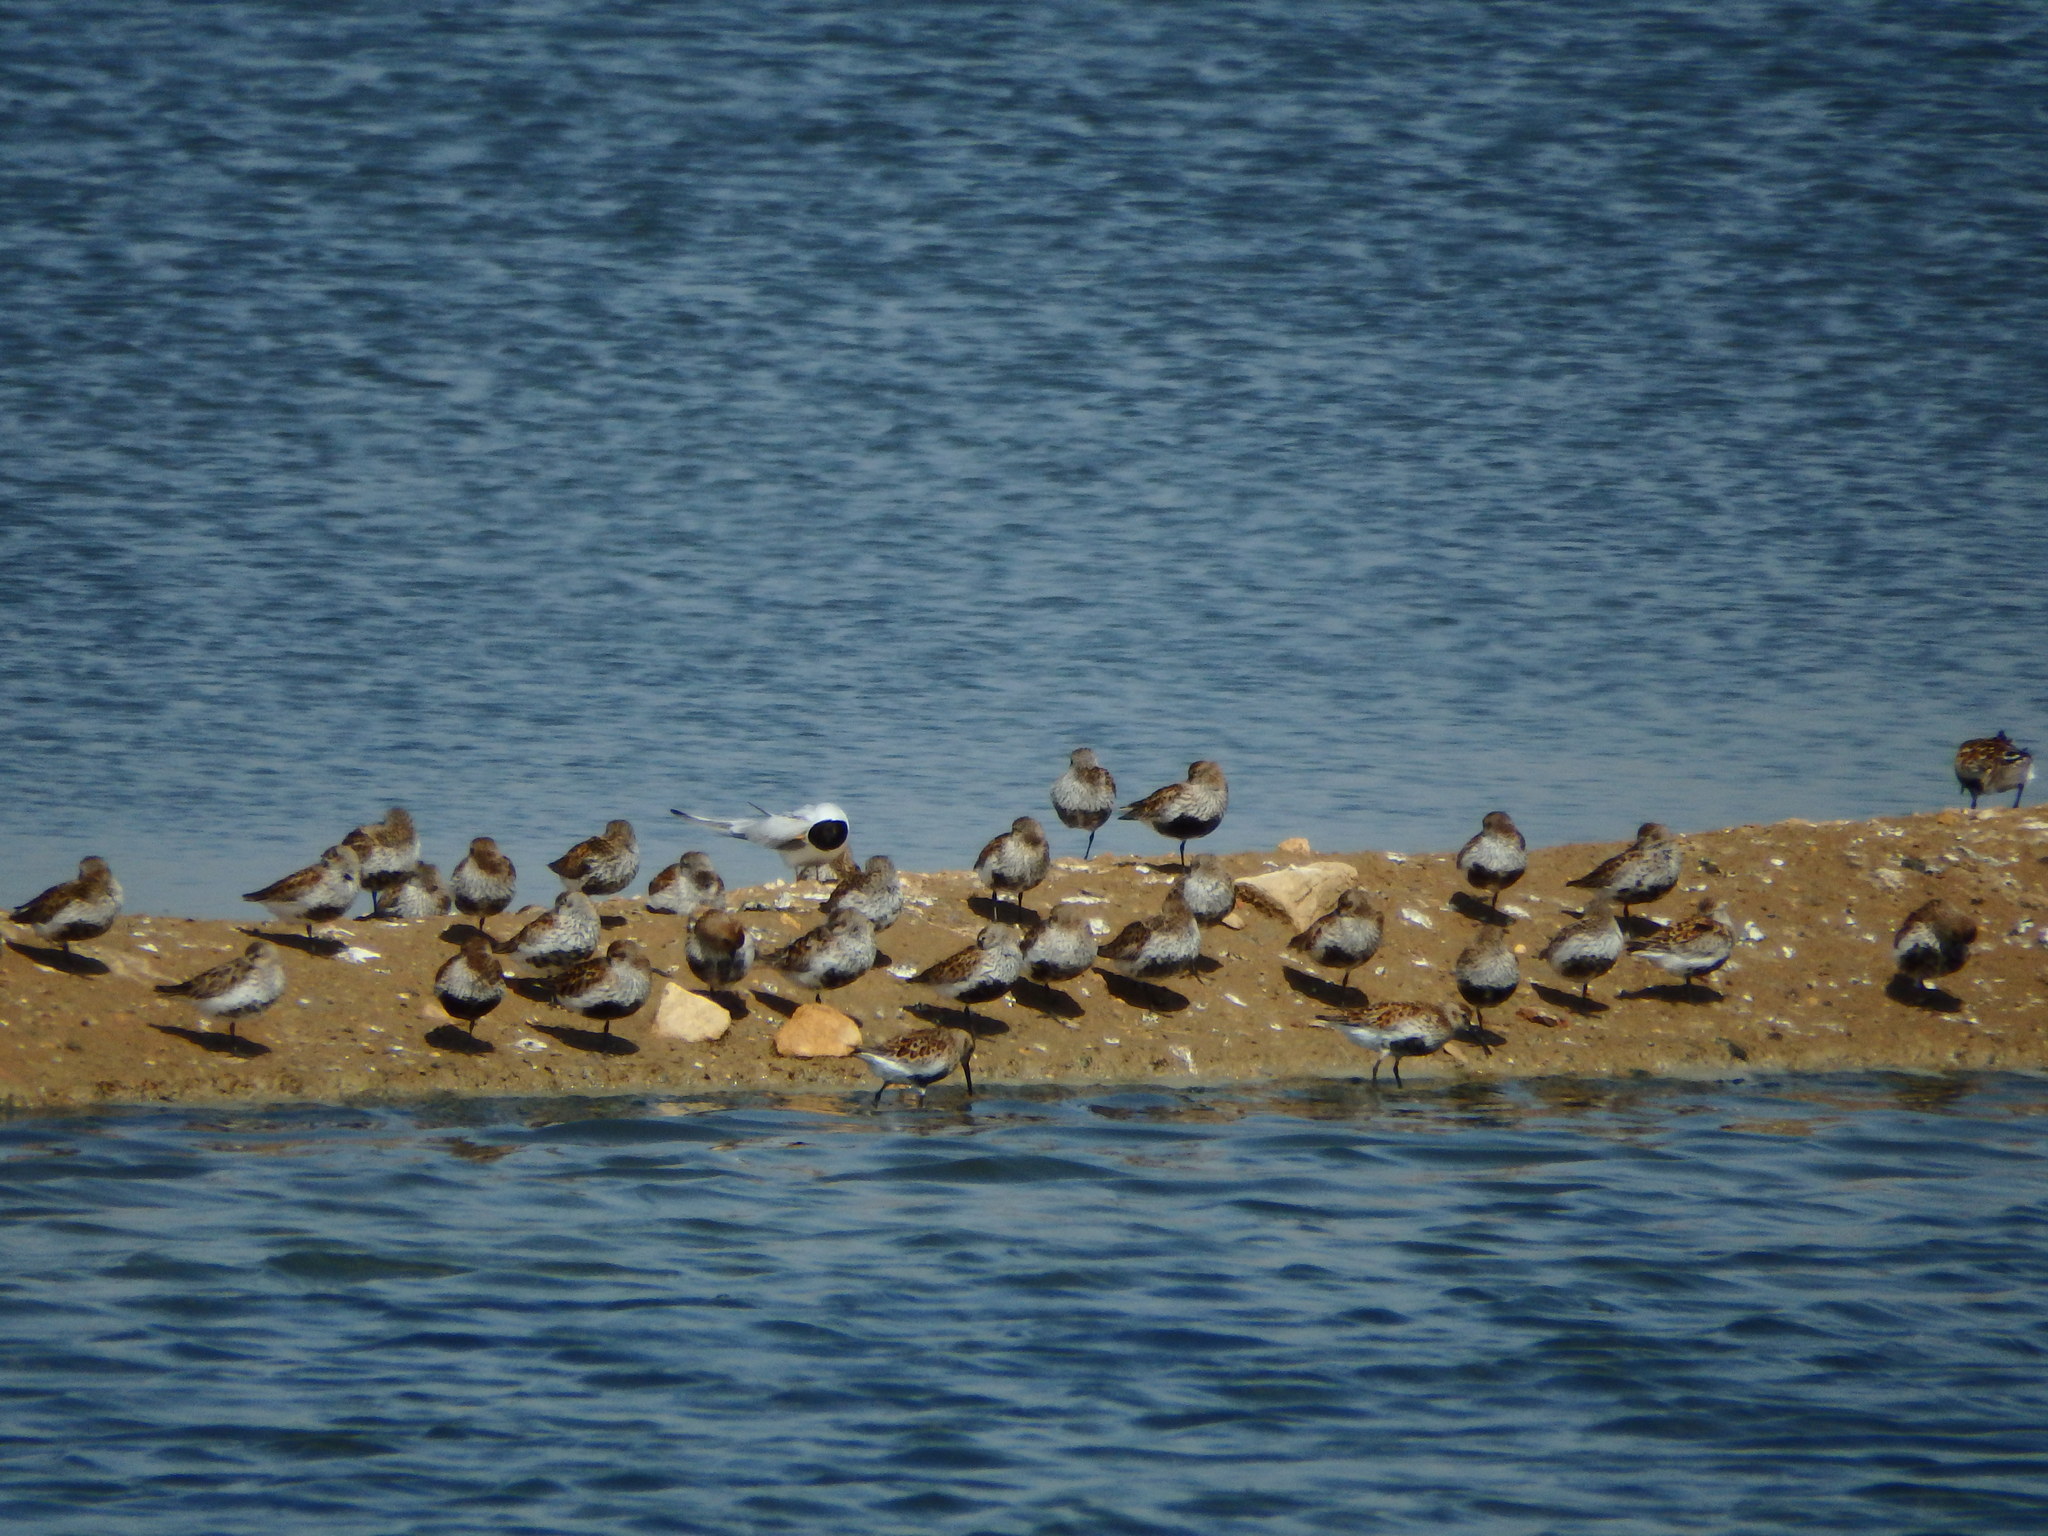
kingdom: Animalia
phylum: Chordata
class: Aves
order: Charadriiformes
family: Scolopacidae
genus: Calidris
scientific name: Calidris alpina
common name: Dunlin
